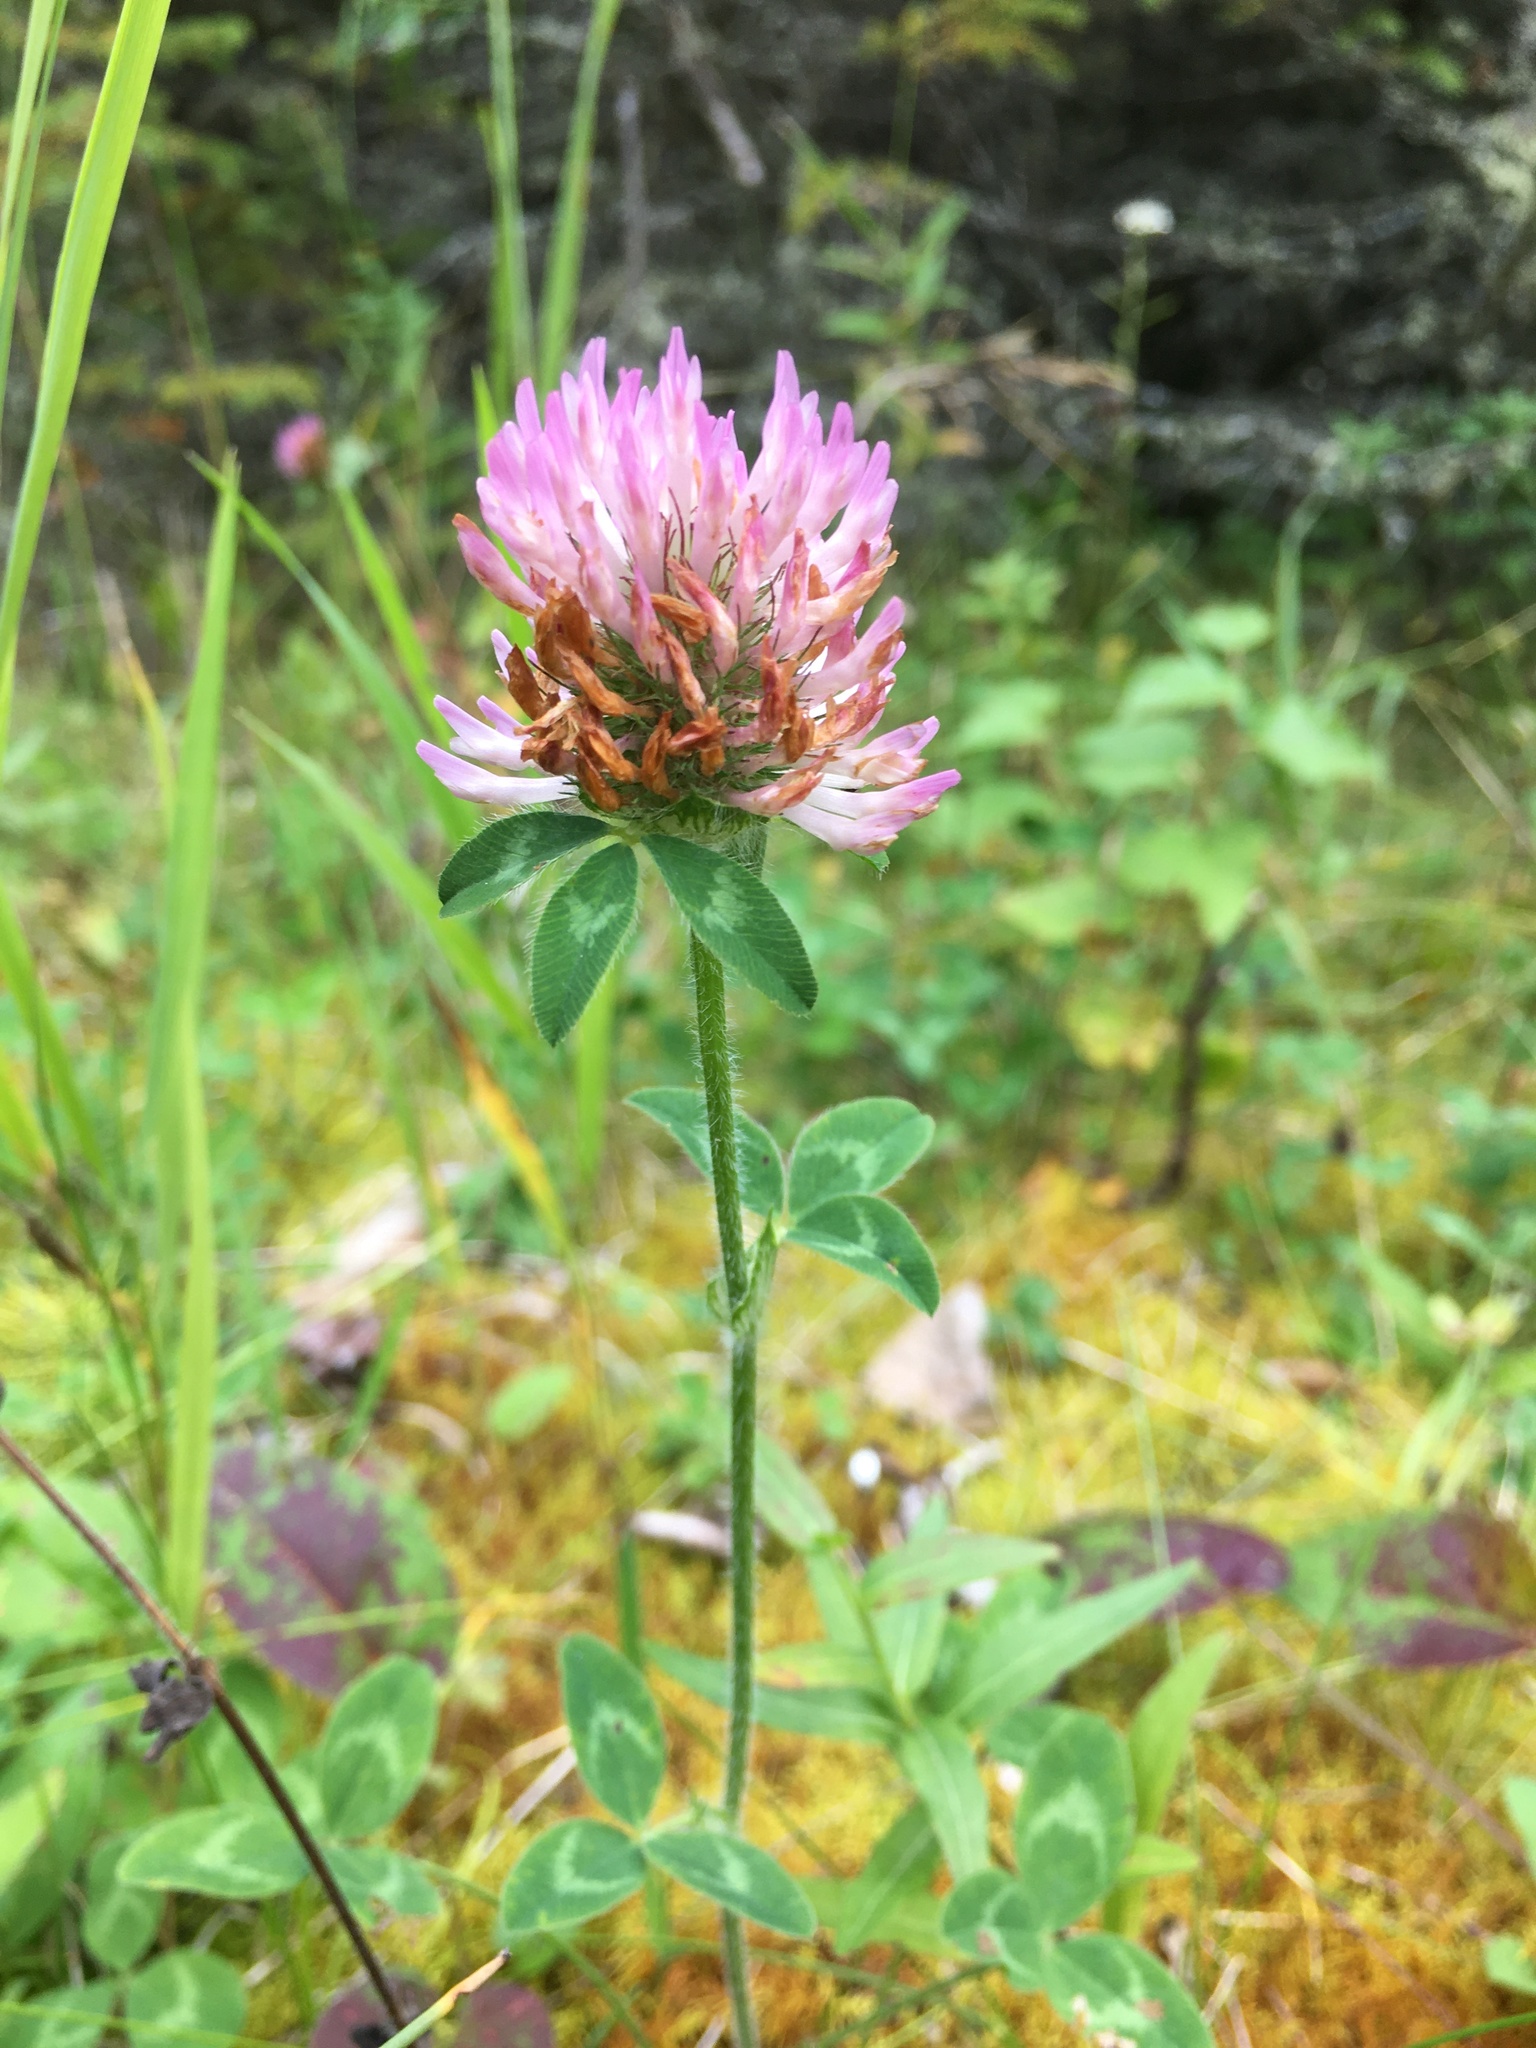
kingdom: Plantae
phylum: Tracheophyta
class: Magnoliopsida
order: Fabales
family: Fabaceae
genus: Trifolium
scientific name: Trifolium pratense
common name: Red clover
